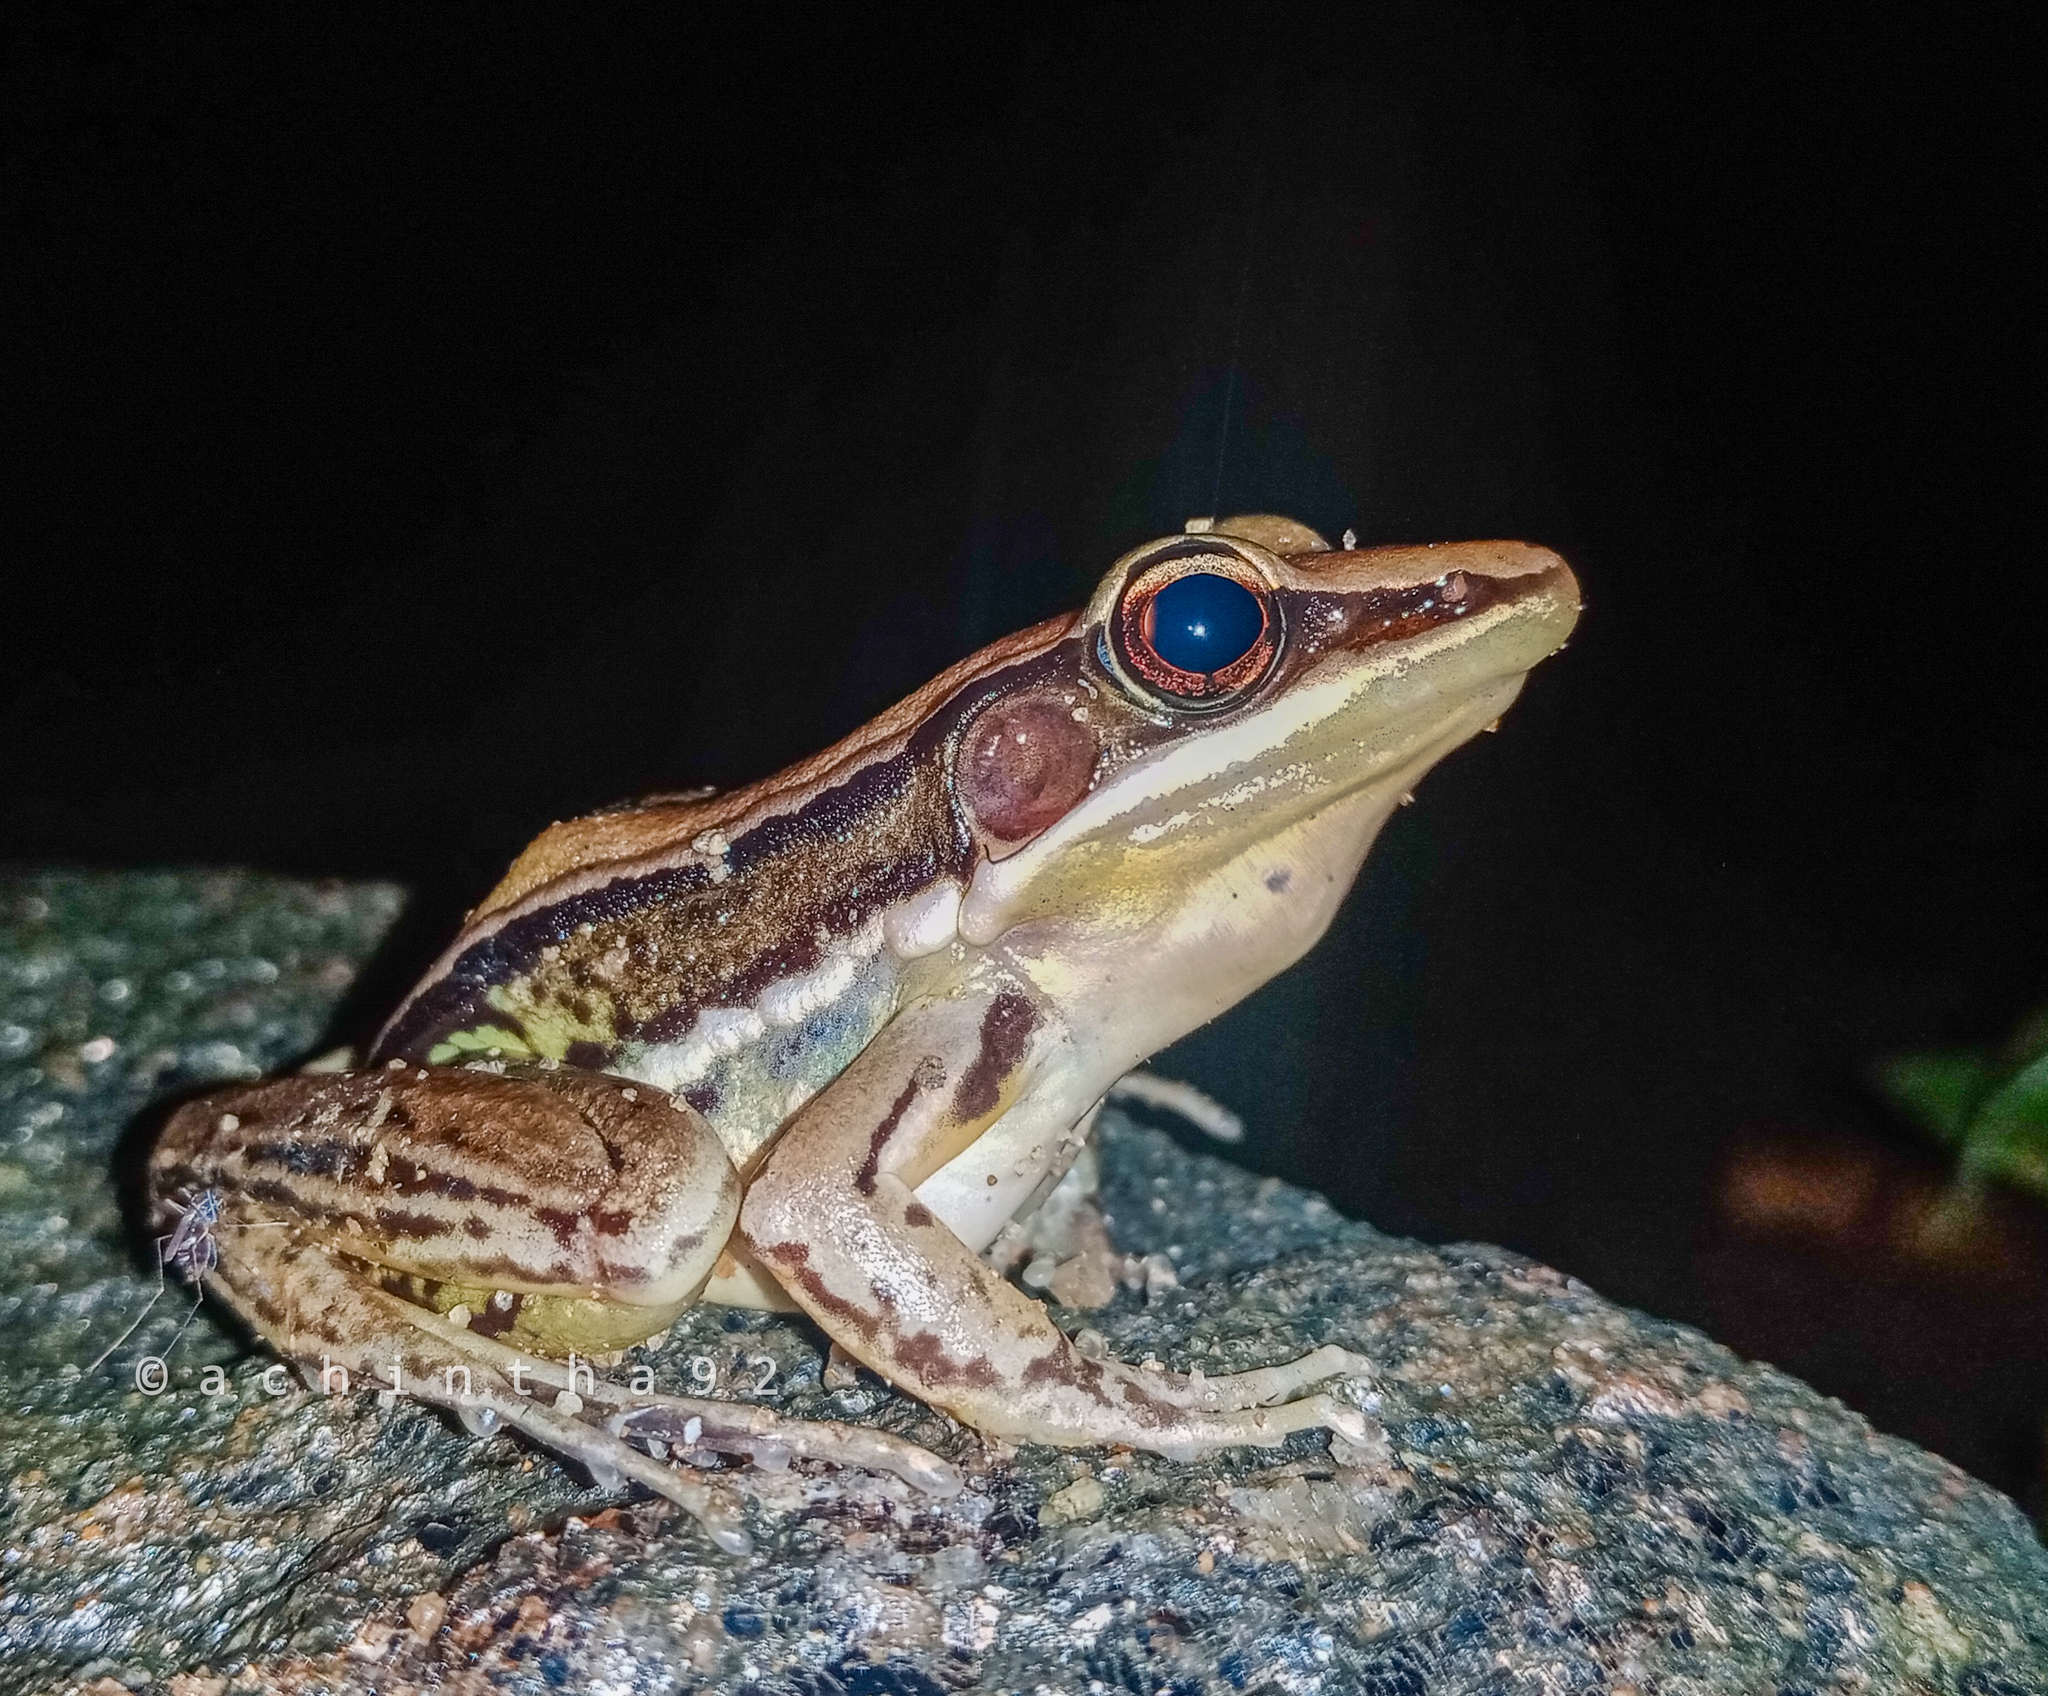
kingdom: Animalia
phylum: Chordata
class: Amphibia
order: Anura
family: Ranidae
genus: Hydrophylax
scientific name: Hydrophylax gracilis
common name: Gravenhorst's frog
